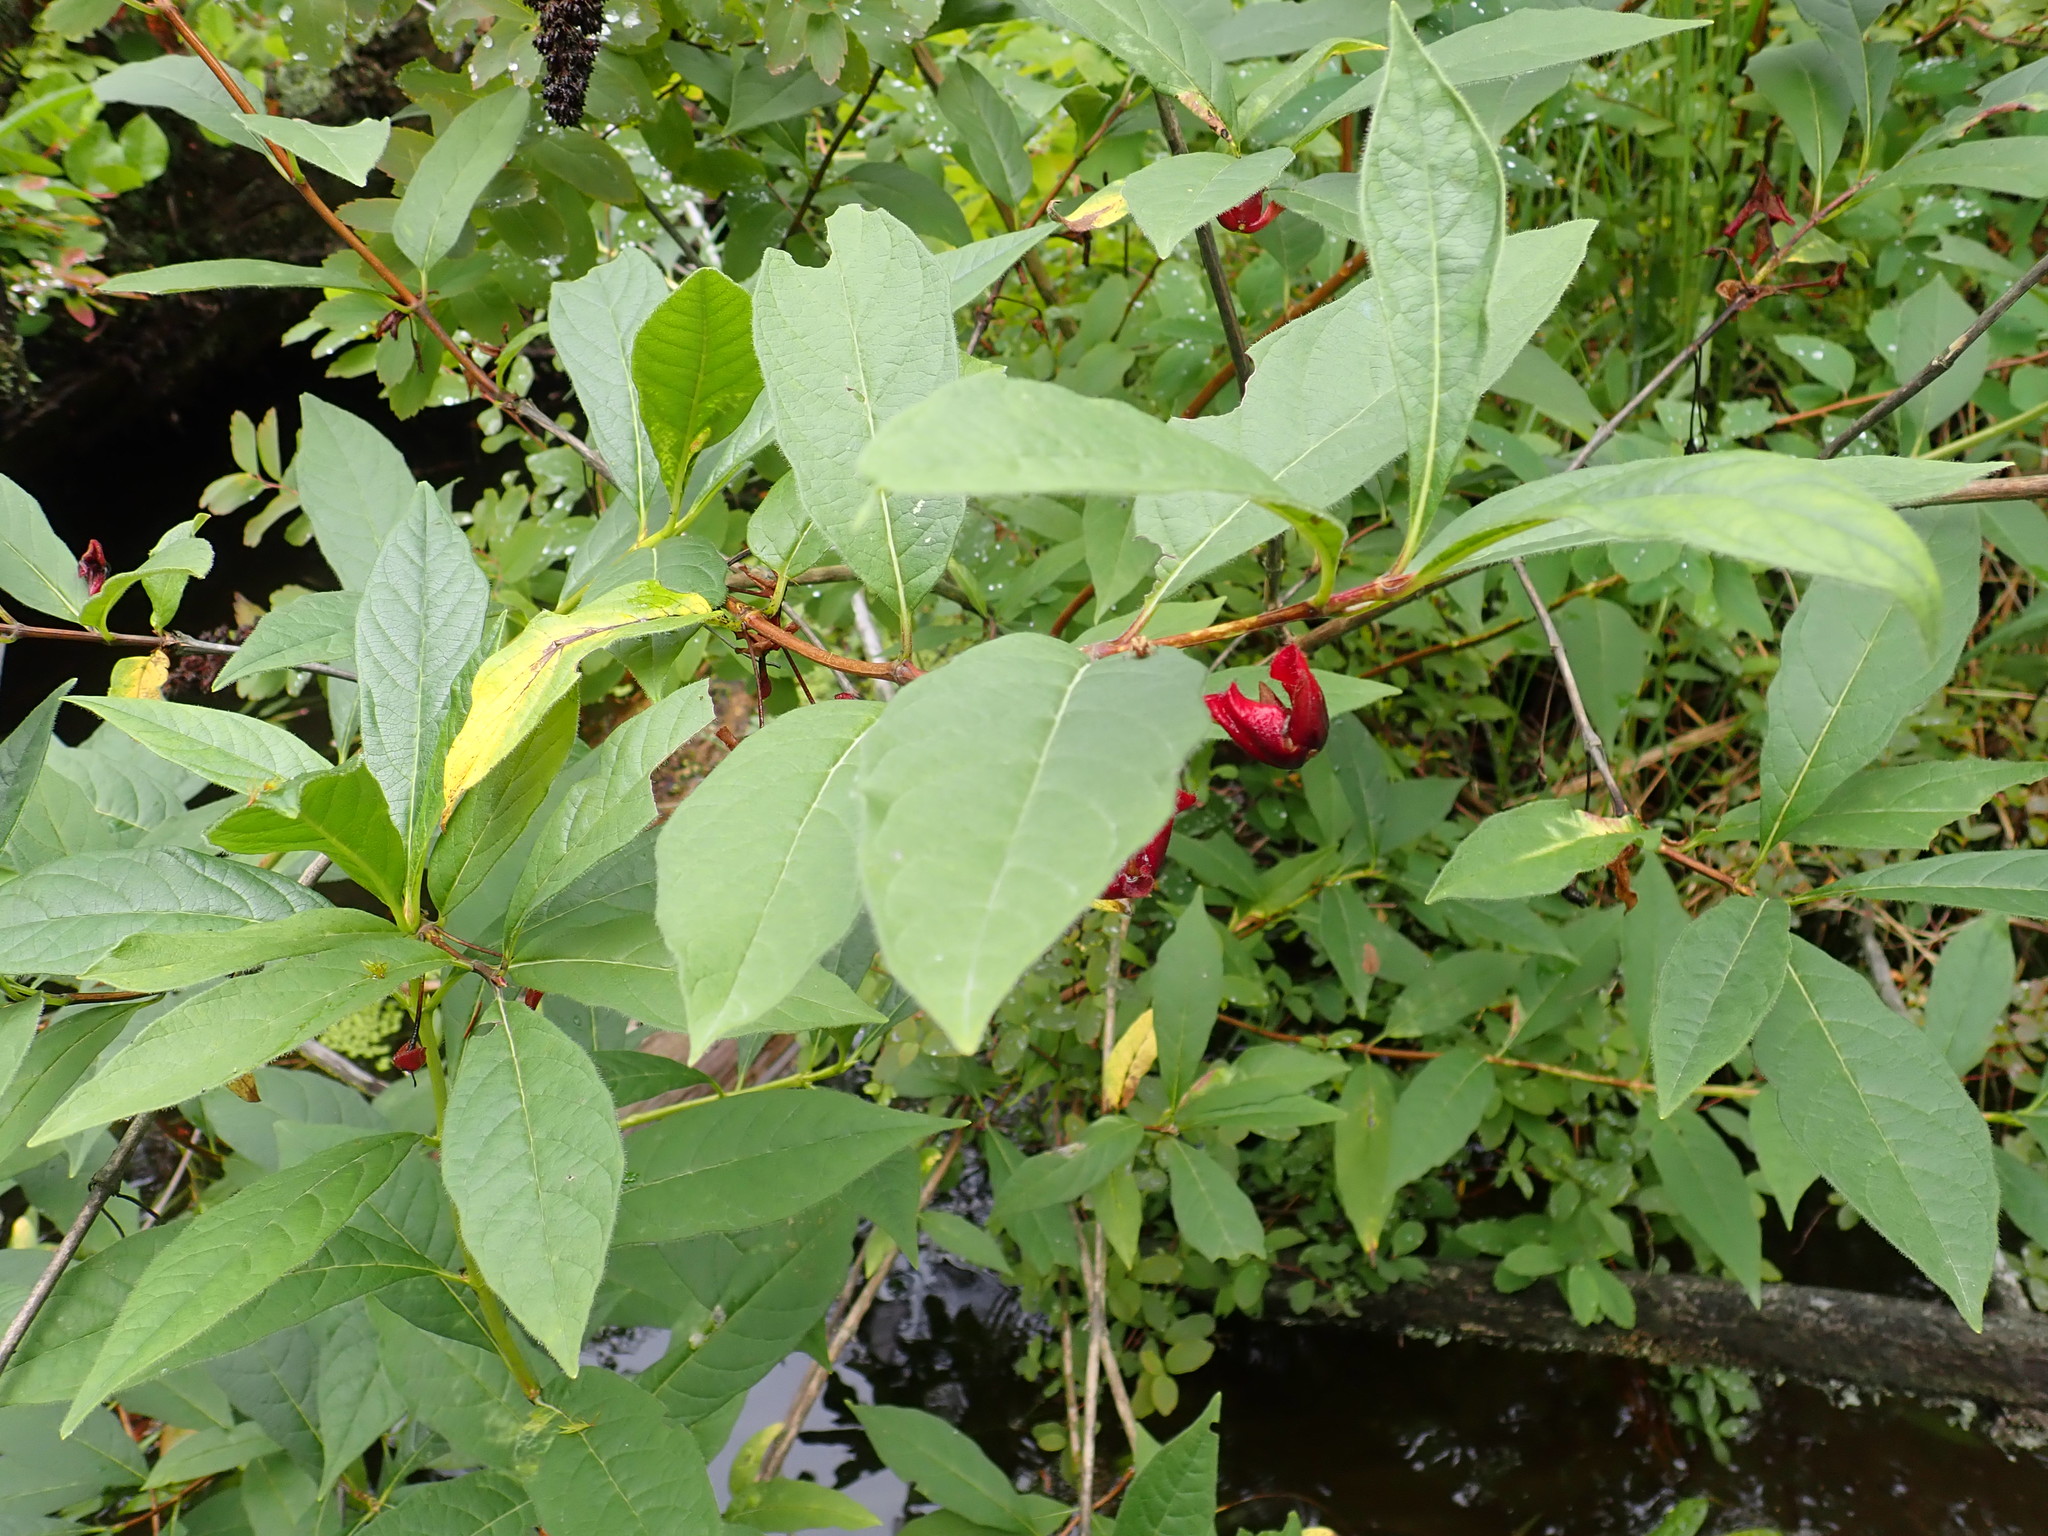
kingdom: Plantae
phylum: Tracheophyta
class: Magnoliopsida
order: Dipsacales
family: Caprifoliaceae
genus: Lonicera
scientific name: Lonicera involucrata
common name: Californian honeysuckle
